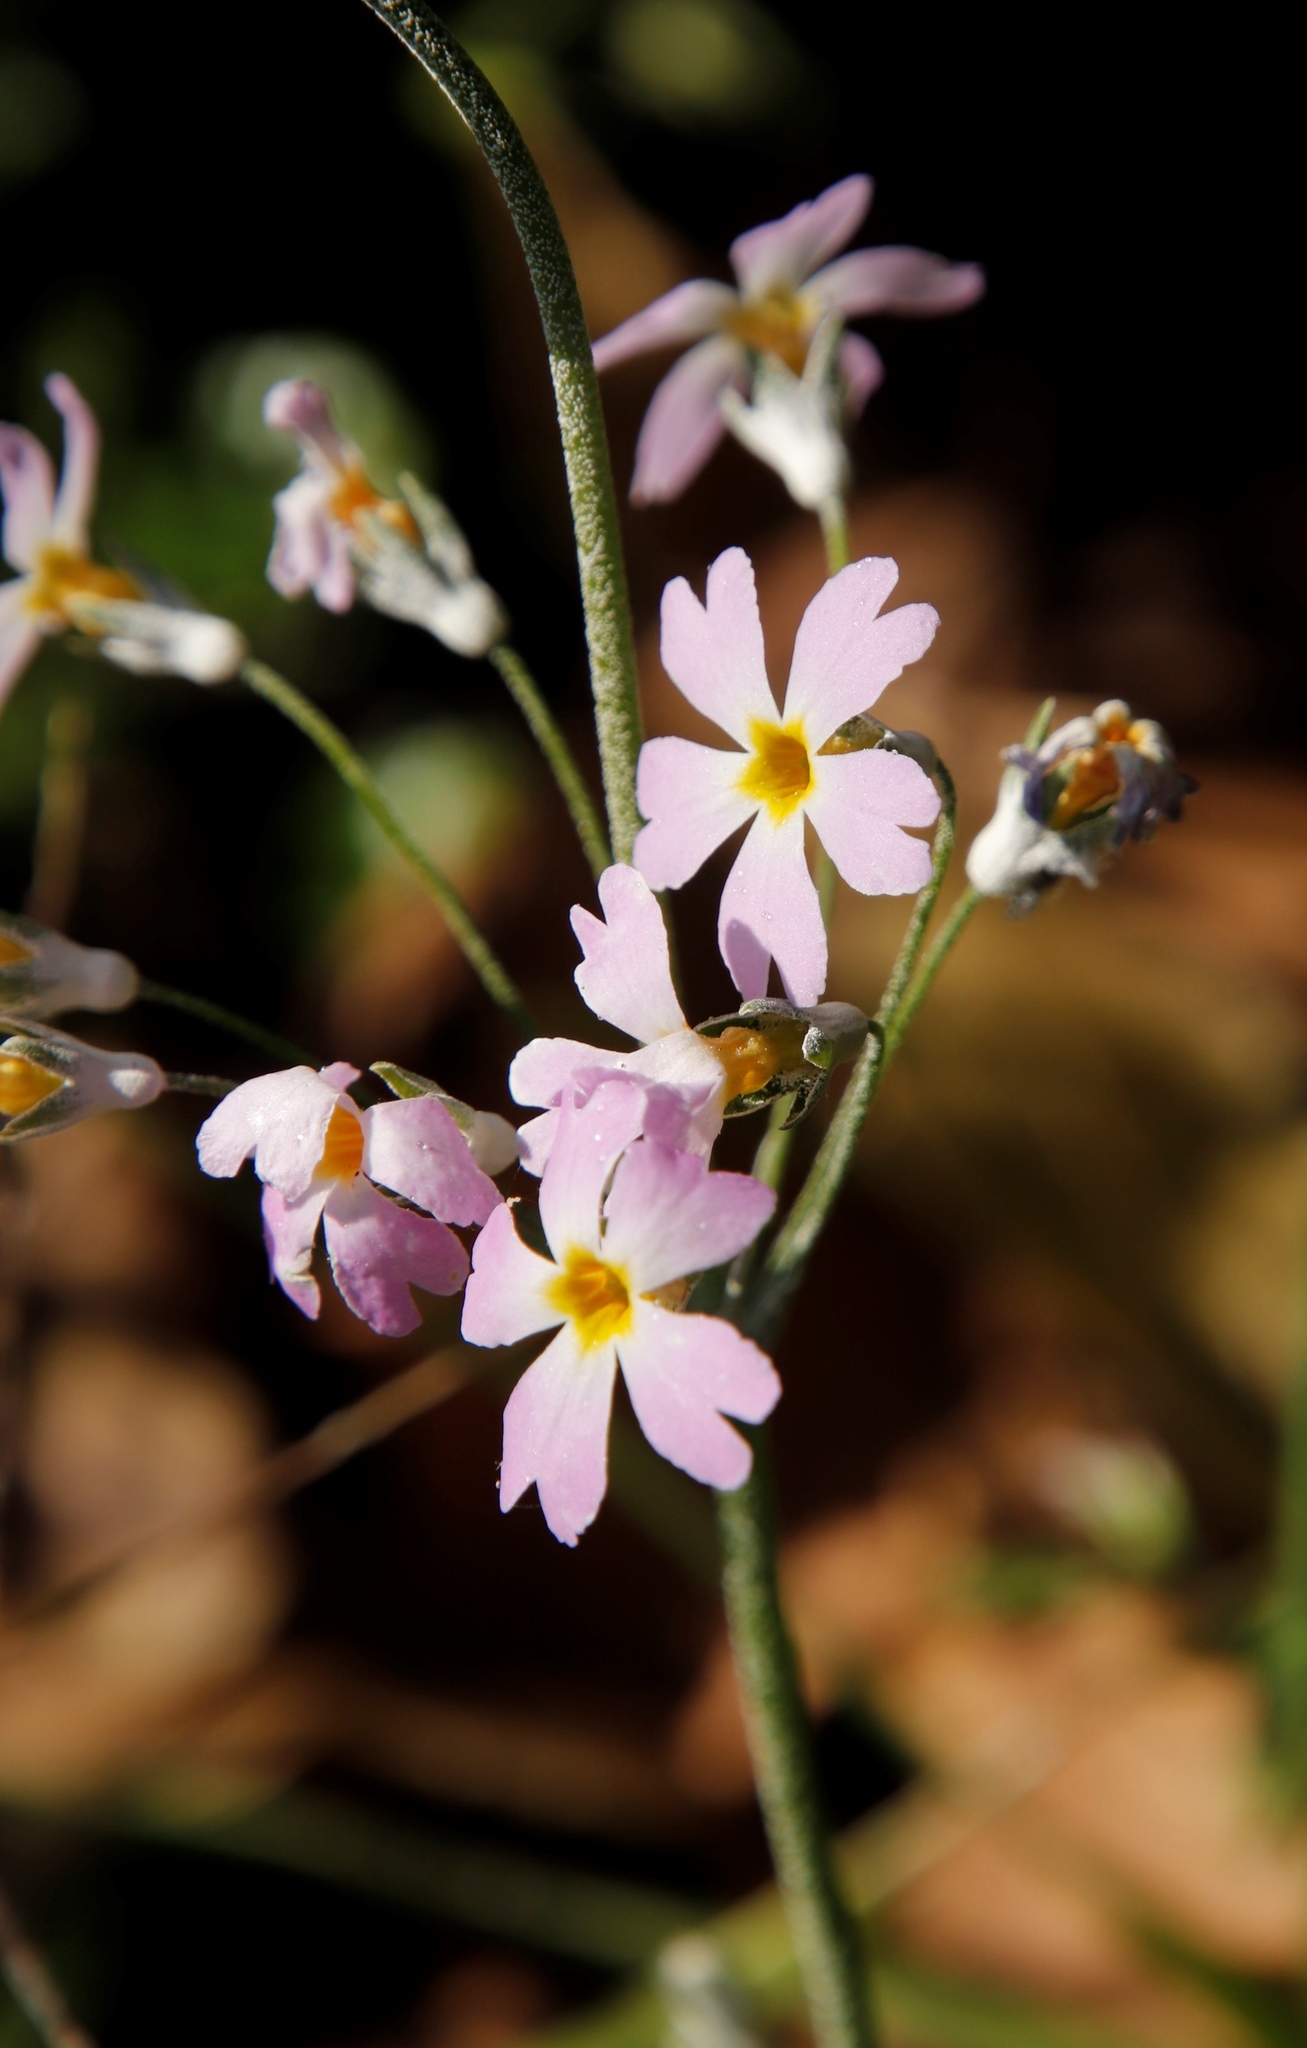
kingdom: Plantae
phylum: Tracheophyta
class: Magnoliopsida
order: Ericales
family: Primulaceae
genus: Primula
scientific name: Primula malacoides
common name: Baby primrose
